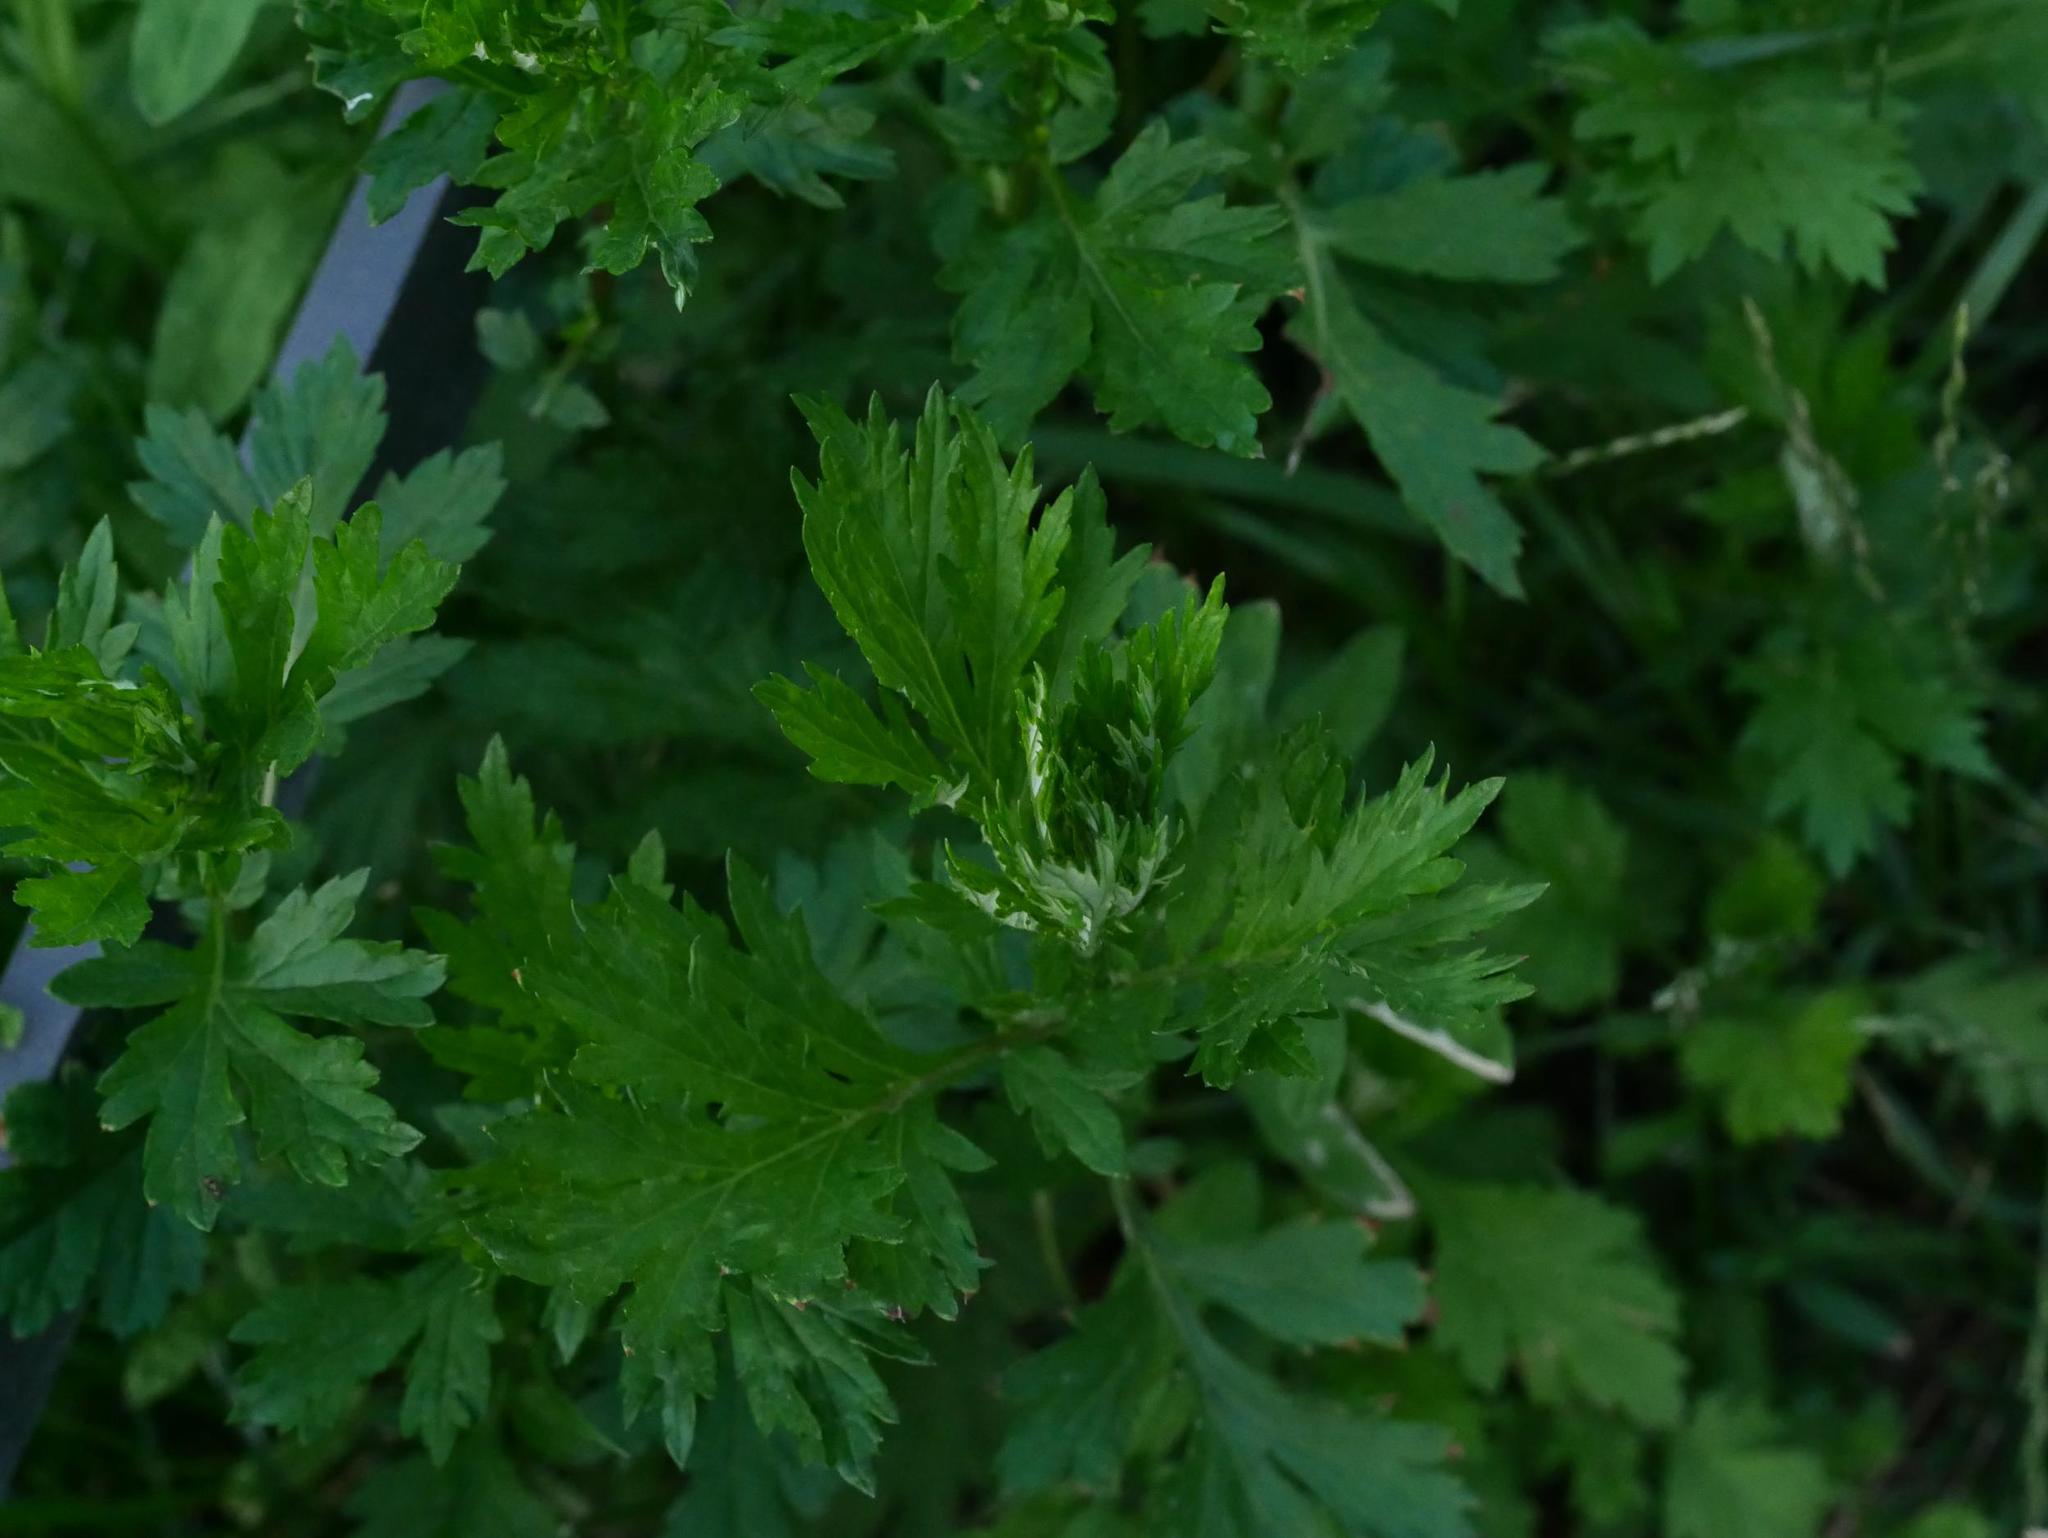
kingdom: Plantae
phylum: Tracheophyta
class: Magnoliopsida
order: Asterales
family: Asteraceae
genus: Artemisia
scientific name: Artemisia vulgaris
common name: Mugwort
